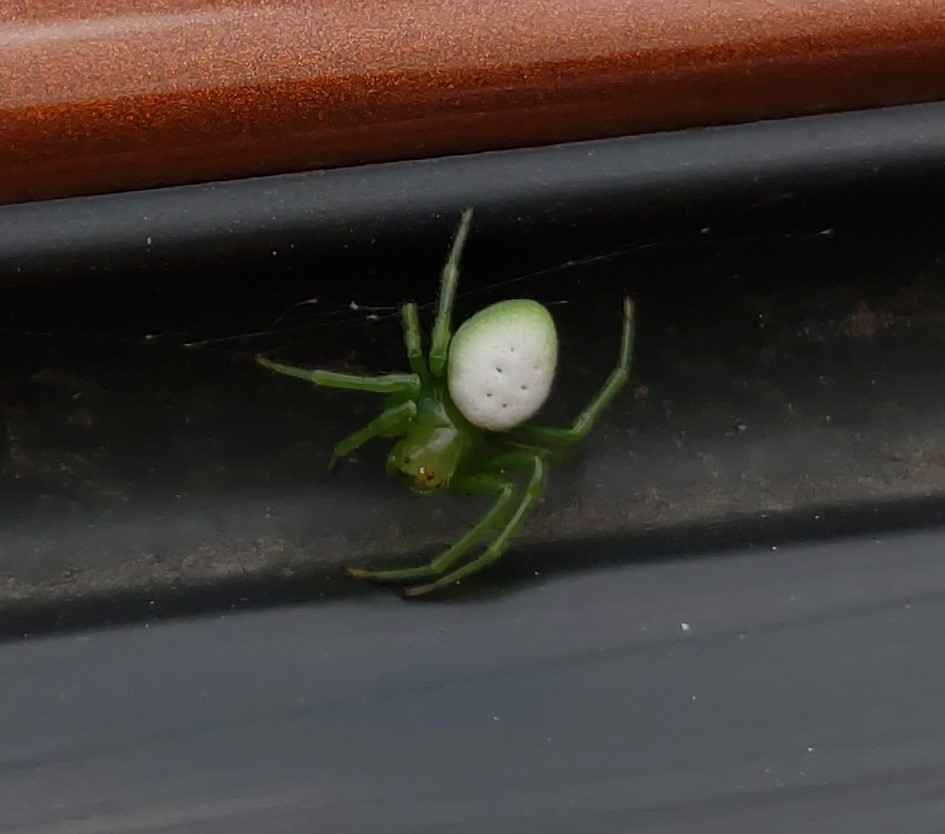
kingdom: Animalia
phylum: Arthropoda
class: Arachnida
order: Araneae
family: Araneidae
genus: Aoaraneus
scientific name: Aoaraneus pentagrammicus
